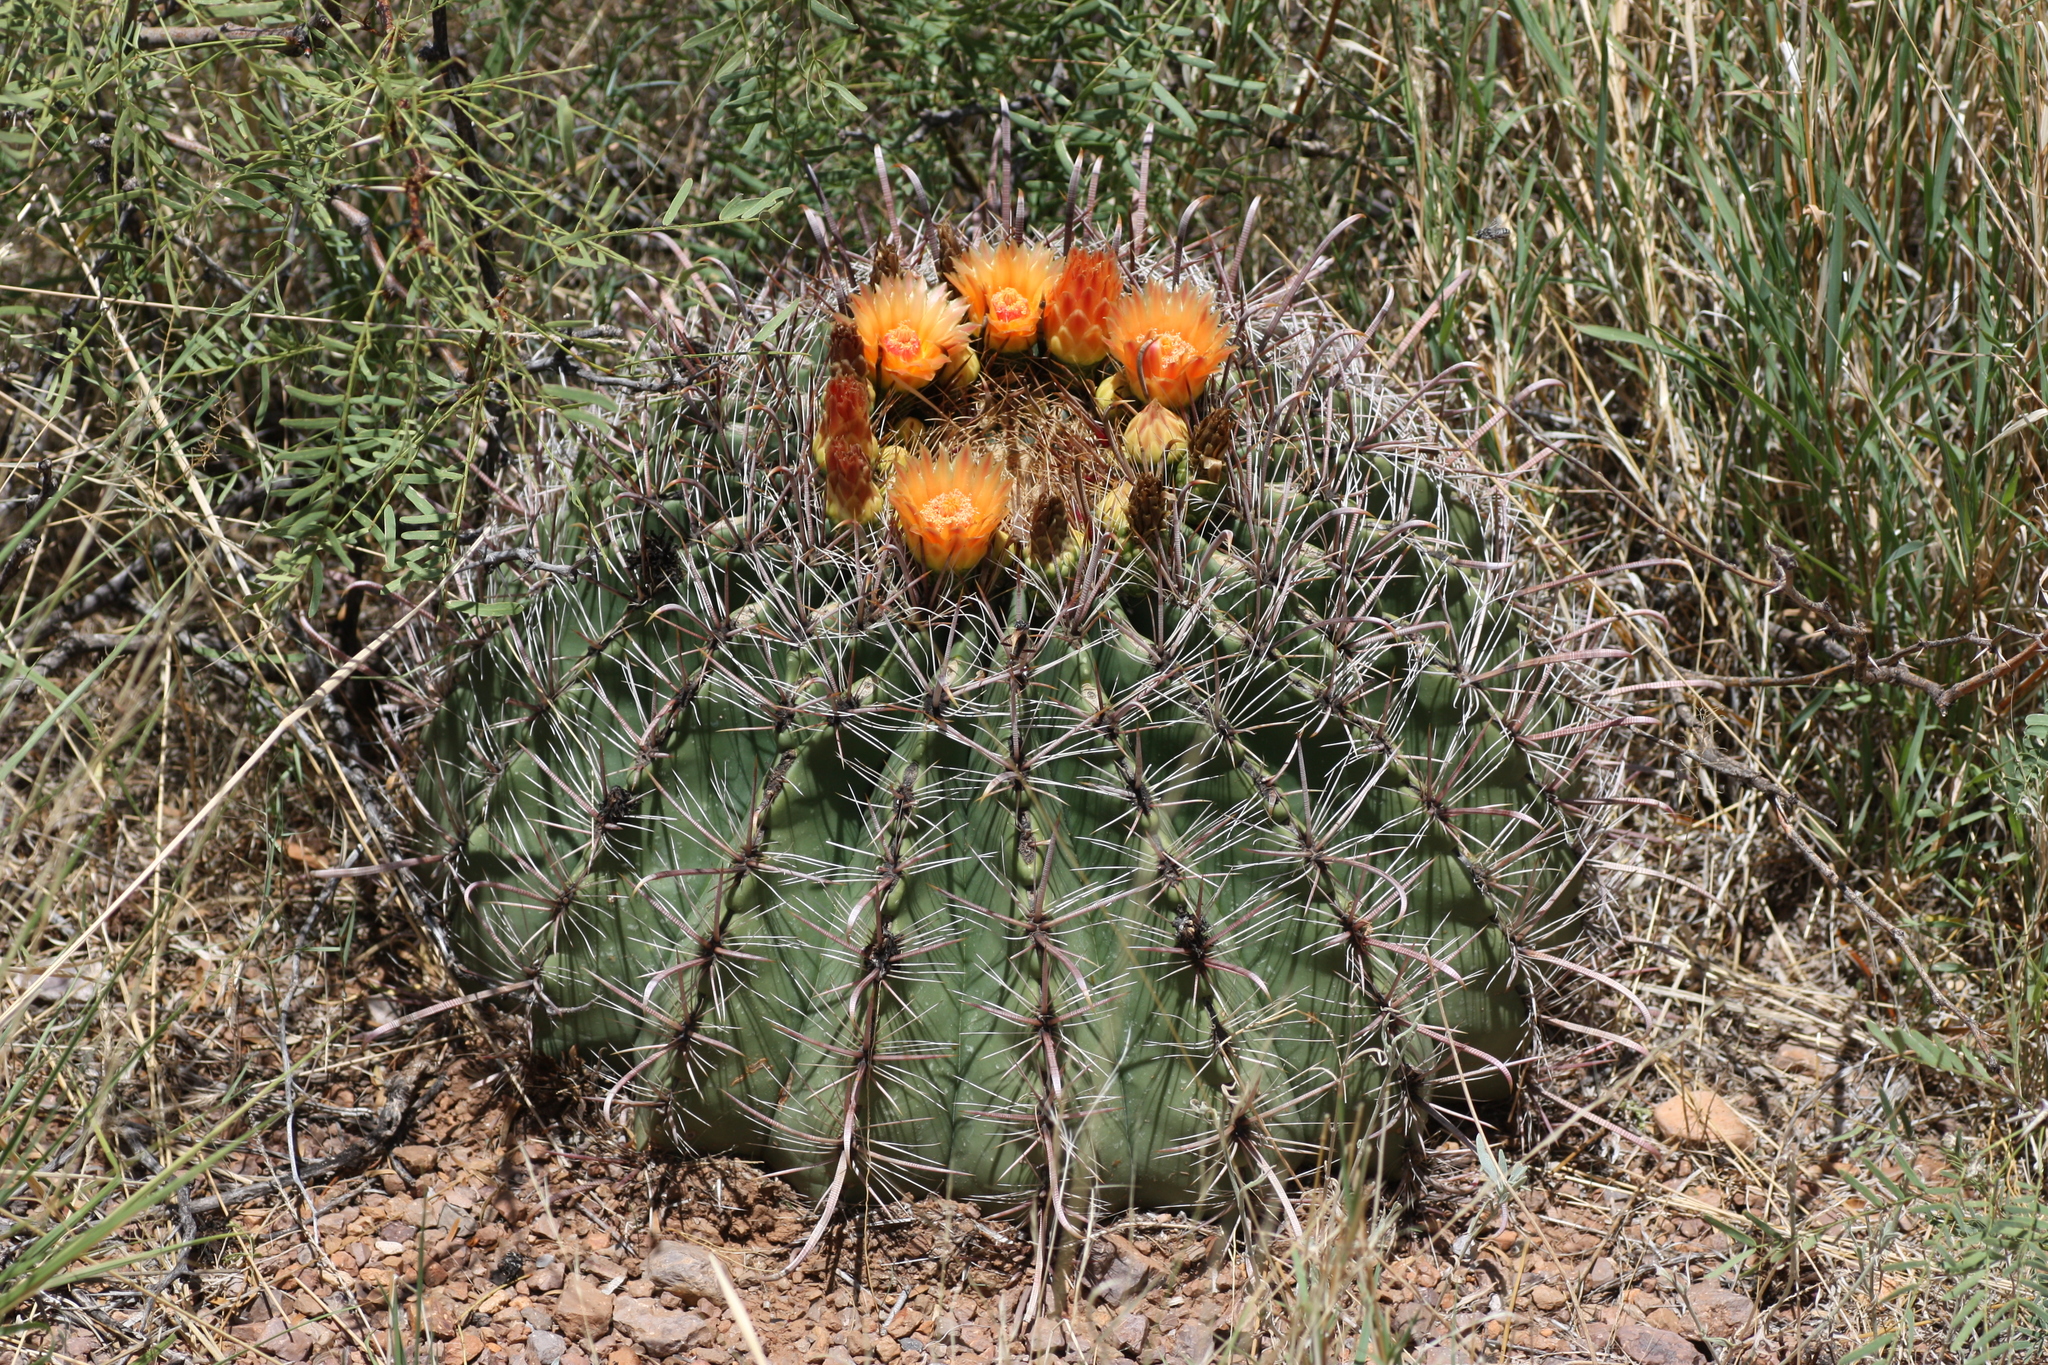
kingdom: Plantae
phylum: Tracheophyta
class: Magnoliopsida
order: Caryophyllales
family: Cactaceae
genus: Ferocactus
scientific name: Ferocactus wislizeni
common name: Candy barrel cactus
